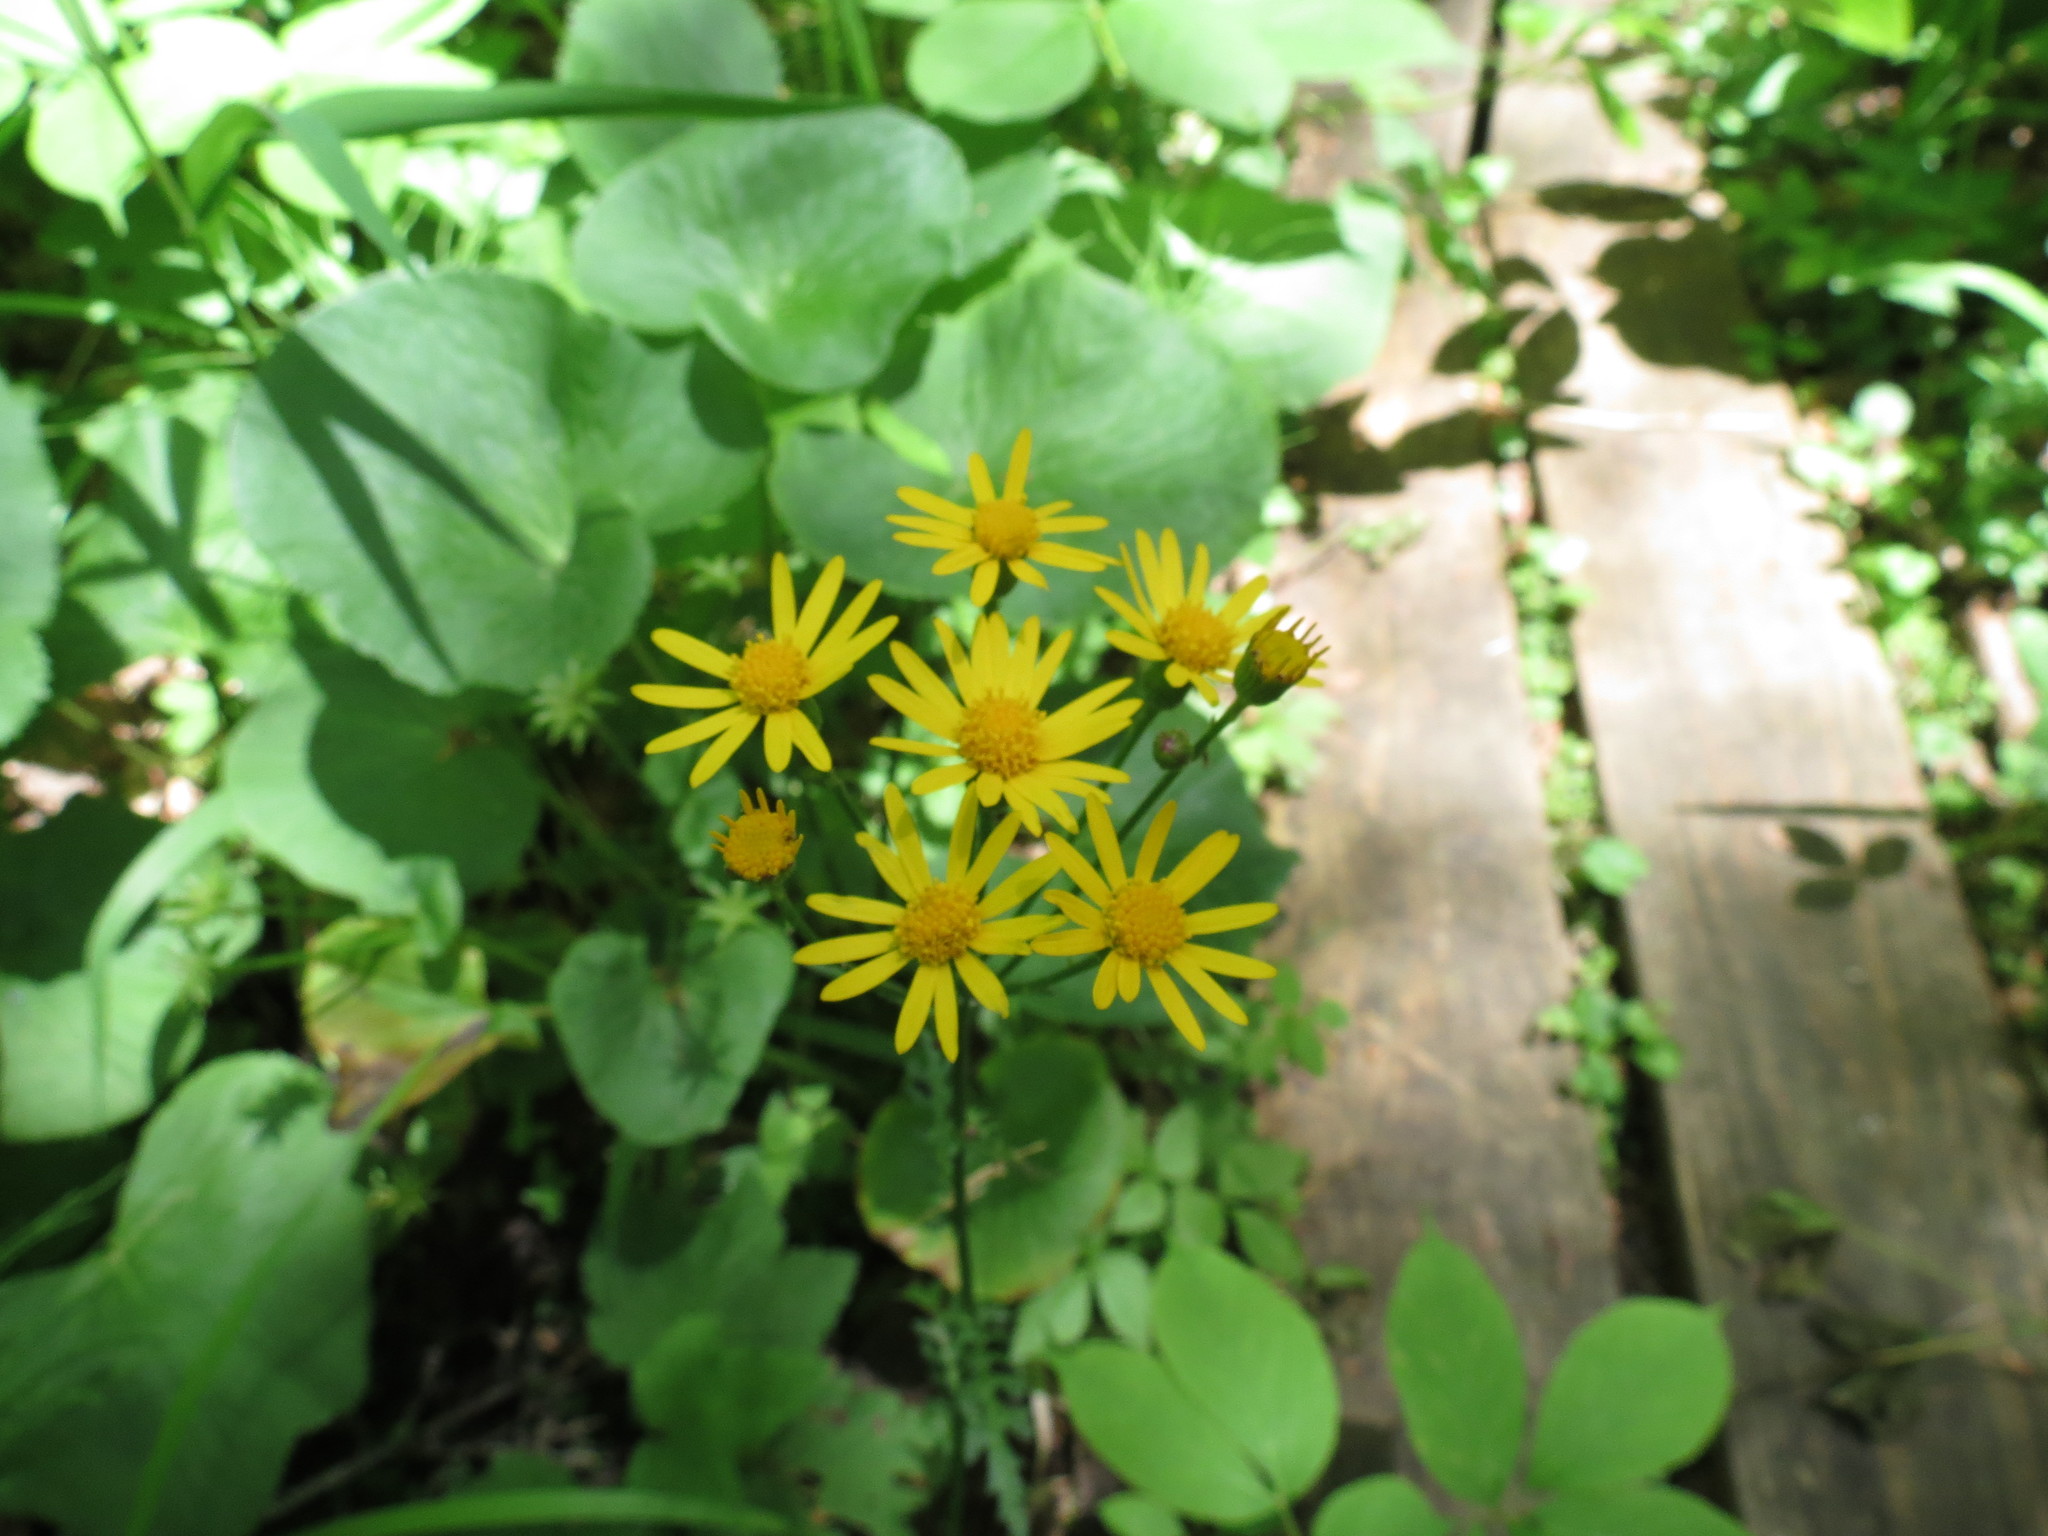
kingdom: Plantae
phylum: Tracheophyta
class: Magnoliopsida
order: Asterales
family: Asteraceae
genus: Packera
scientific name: Packera aurea
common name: Golden groundsel
